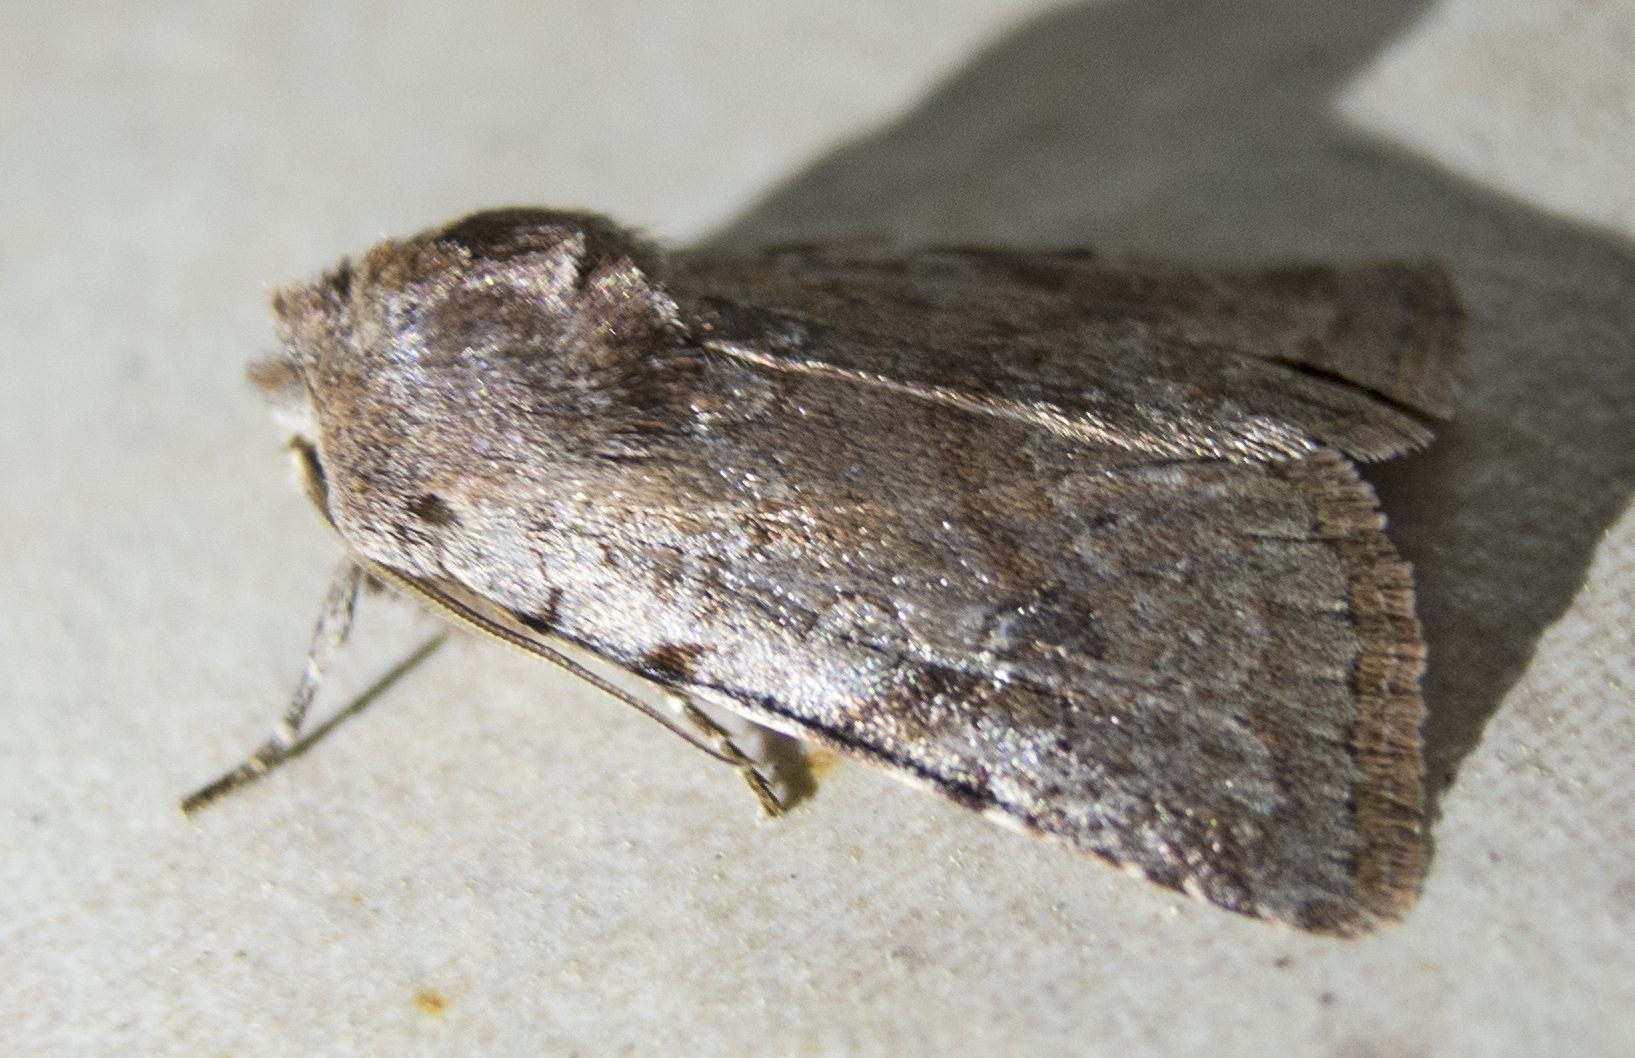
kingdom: Animalia
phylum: Arthropoda
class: Insecta
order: Lepidoptera
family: Noctuidae
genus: Cerastis
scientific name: Cerastis rubricosa
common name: Red chestnut
